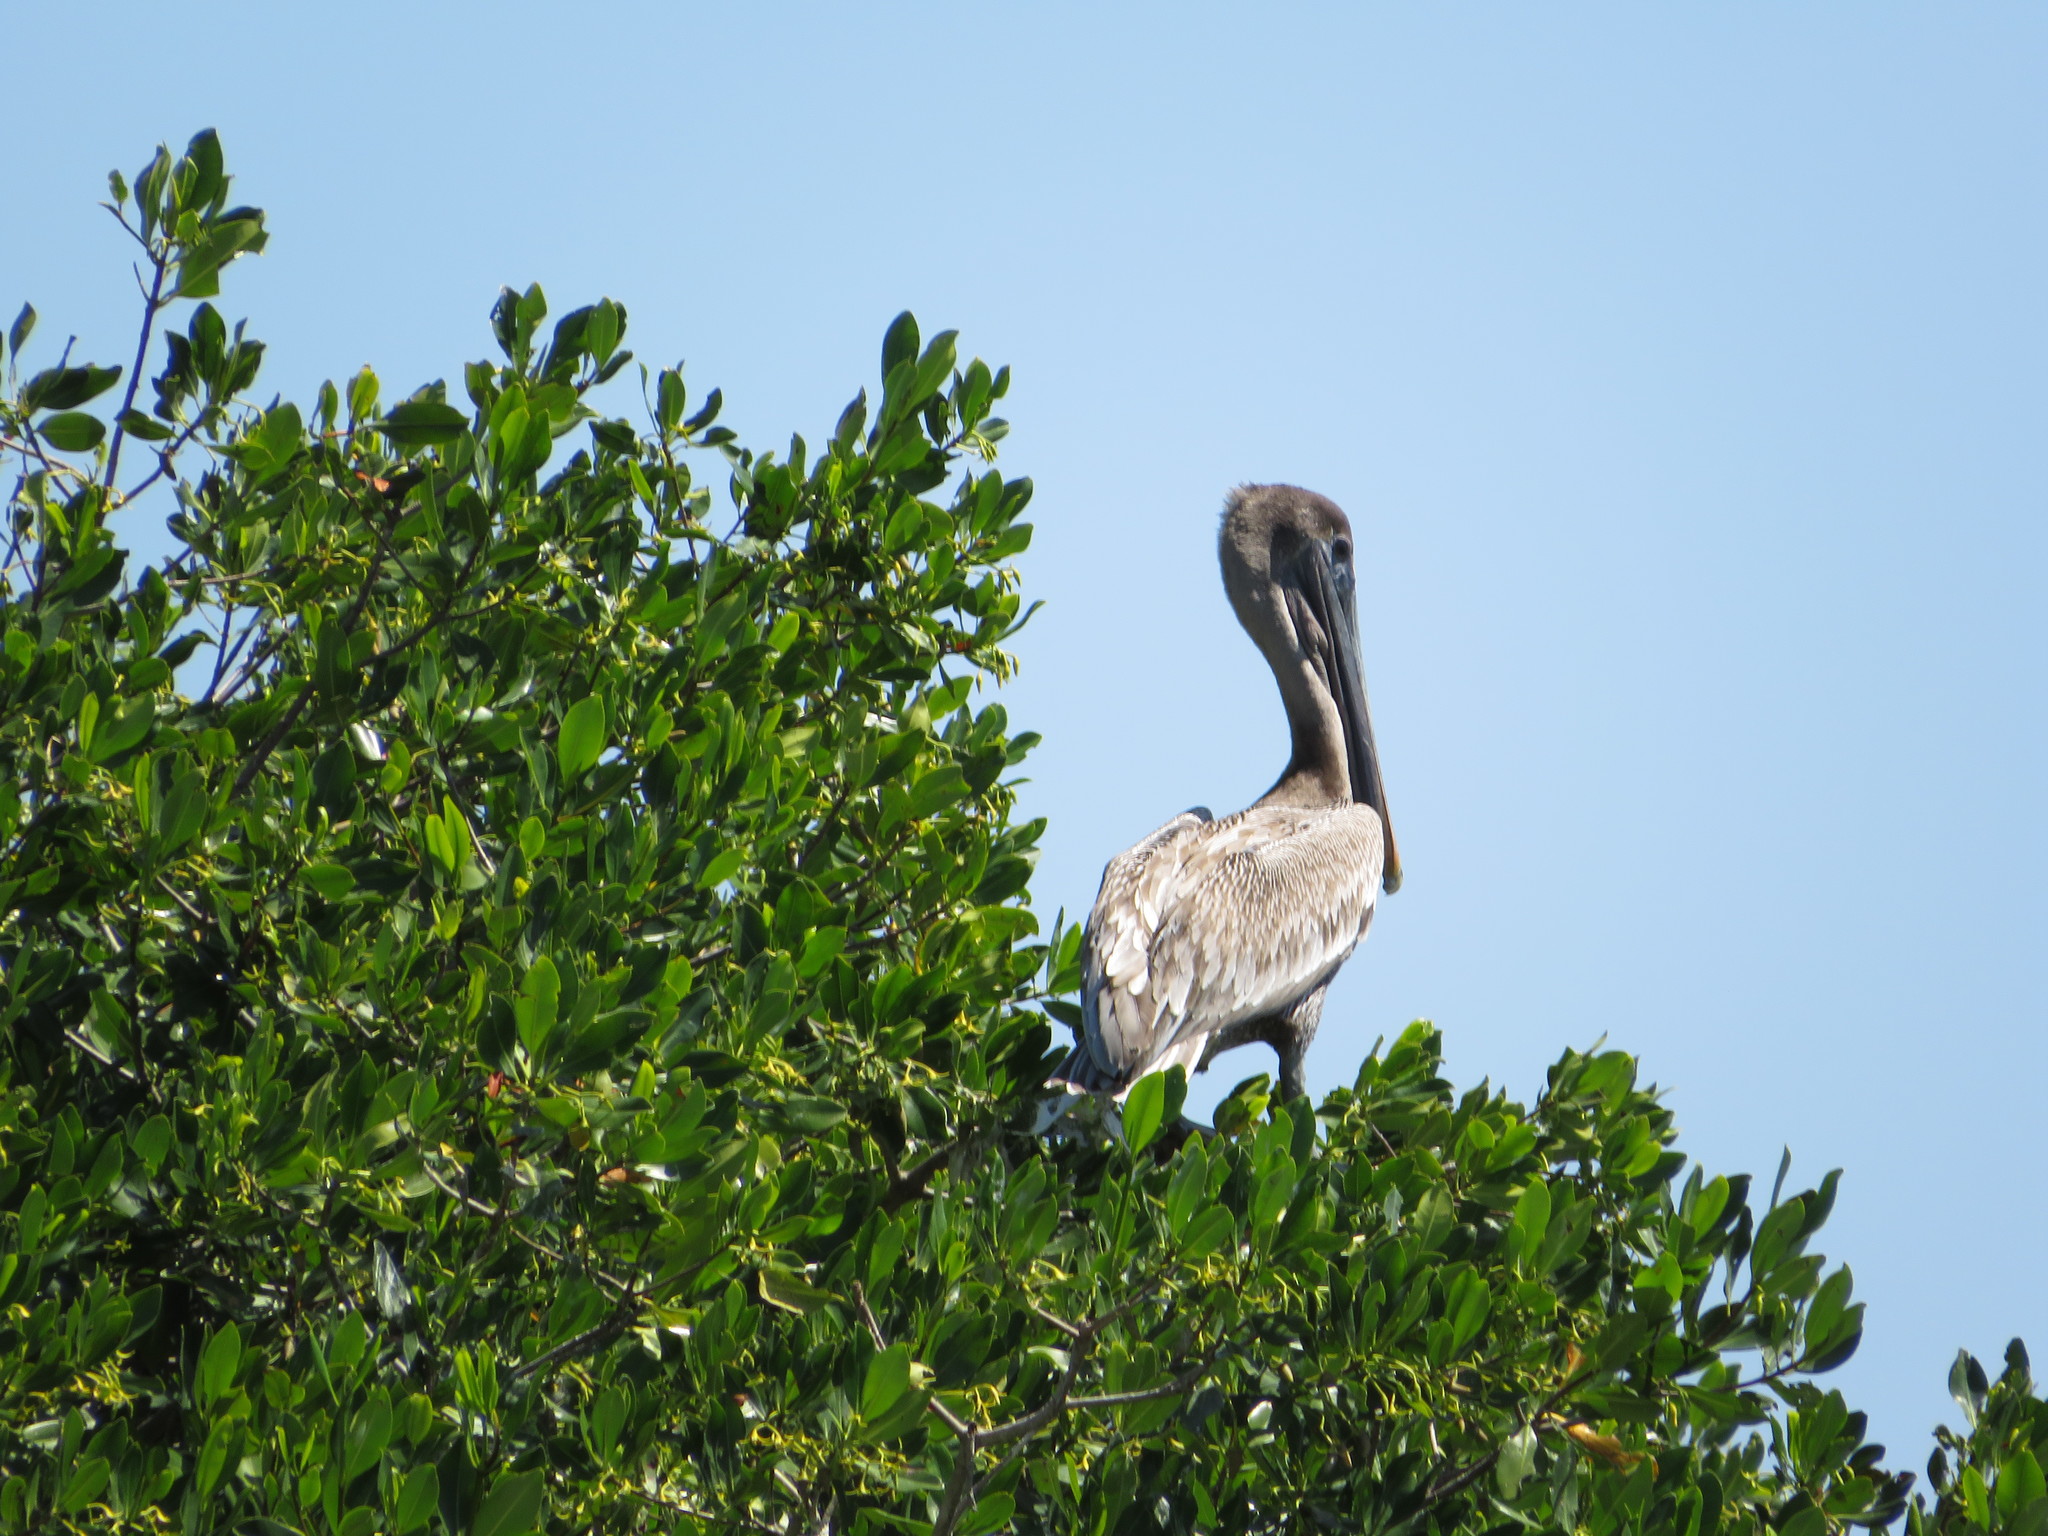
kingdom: Animalia
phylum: Chordata
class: Aves
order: Pelecaniformes
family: Pelecanidae
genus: Pelecanus
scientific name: Pelecanus occidentalis
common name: Brown pelican
